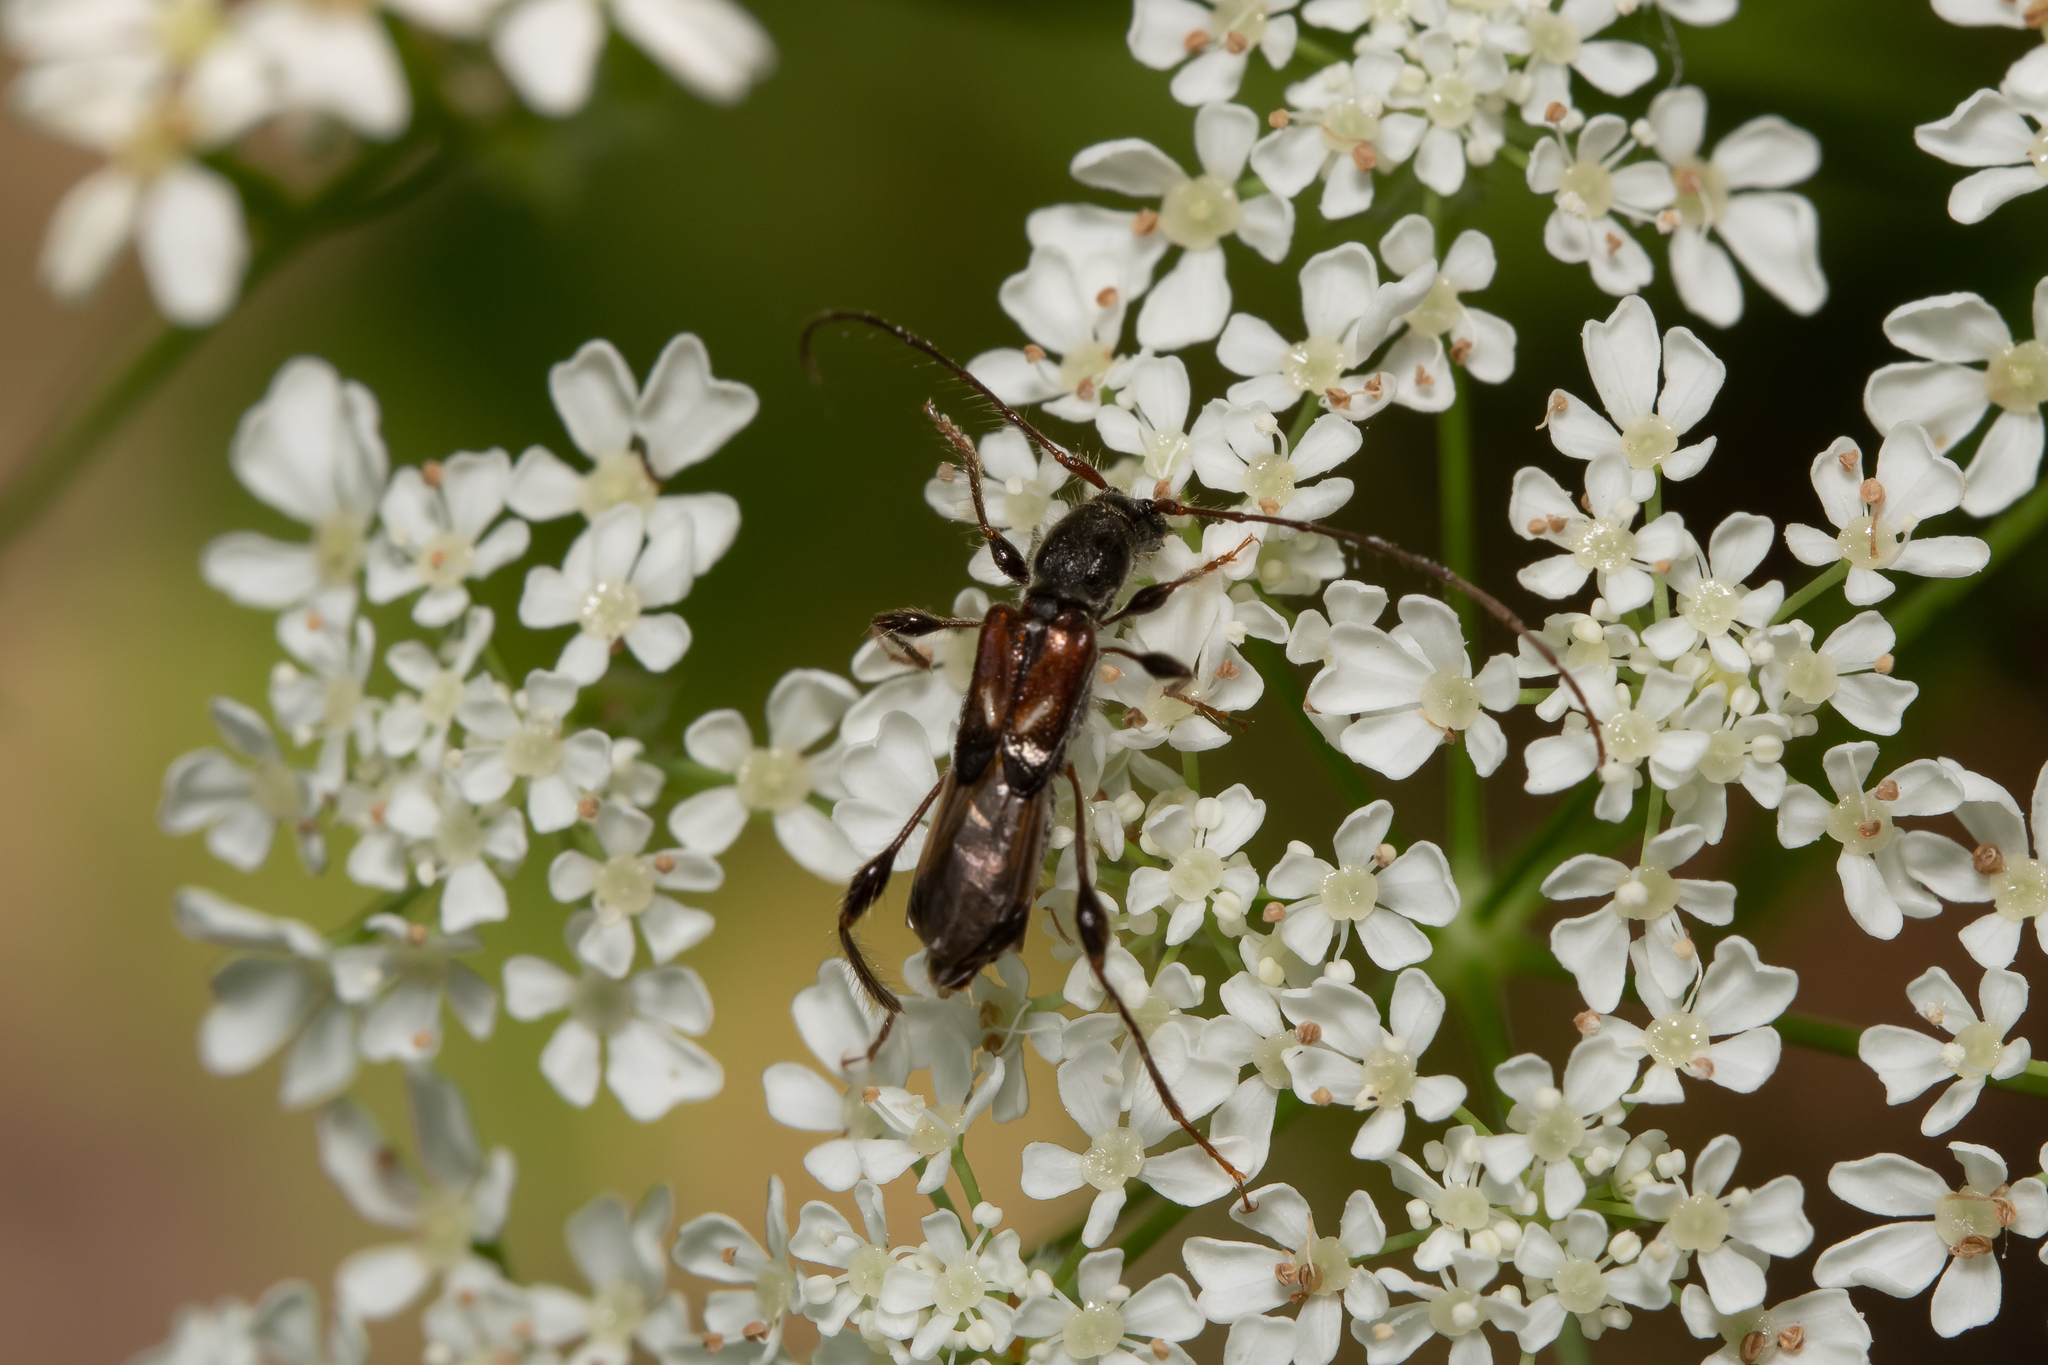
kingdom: Animalia
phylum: Arthropoda
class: Insecta
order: Coleoptera
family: Cerambycidae
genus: Molorchus
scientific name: Molorchus minor
